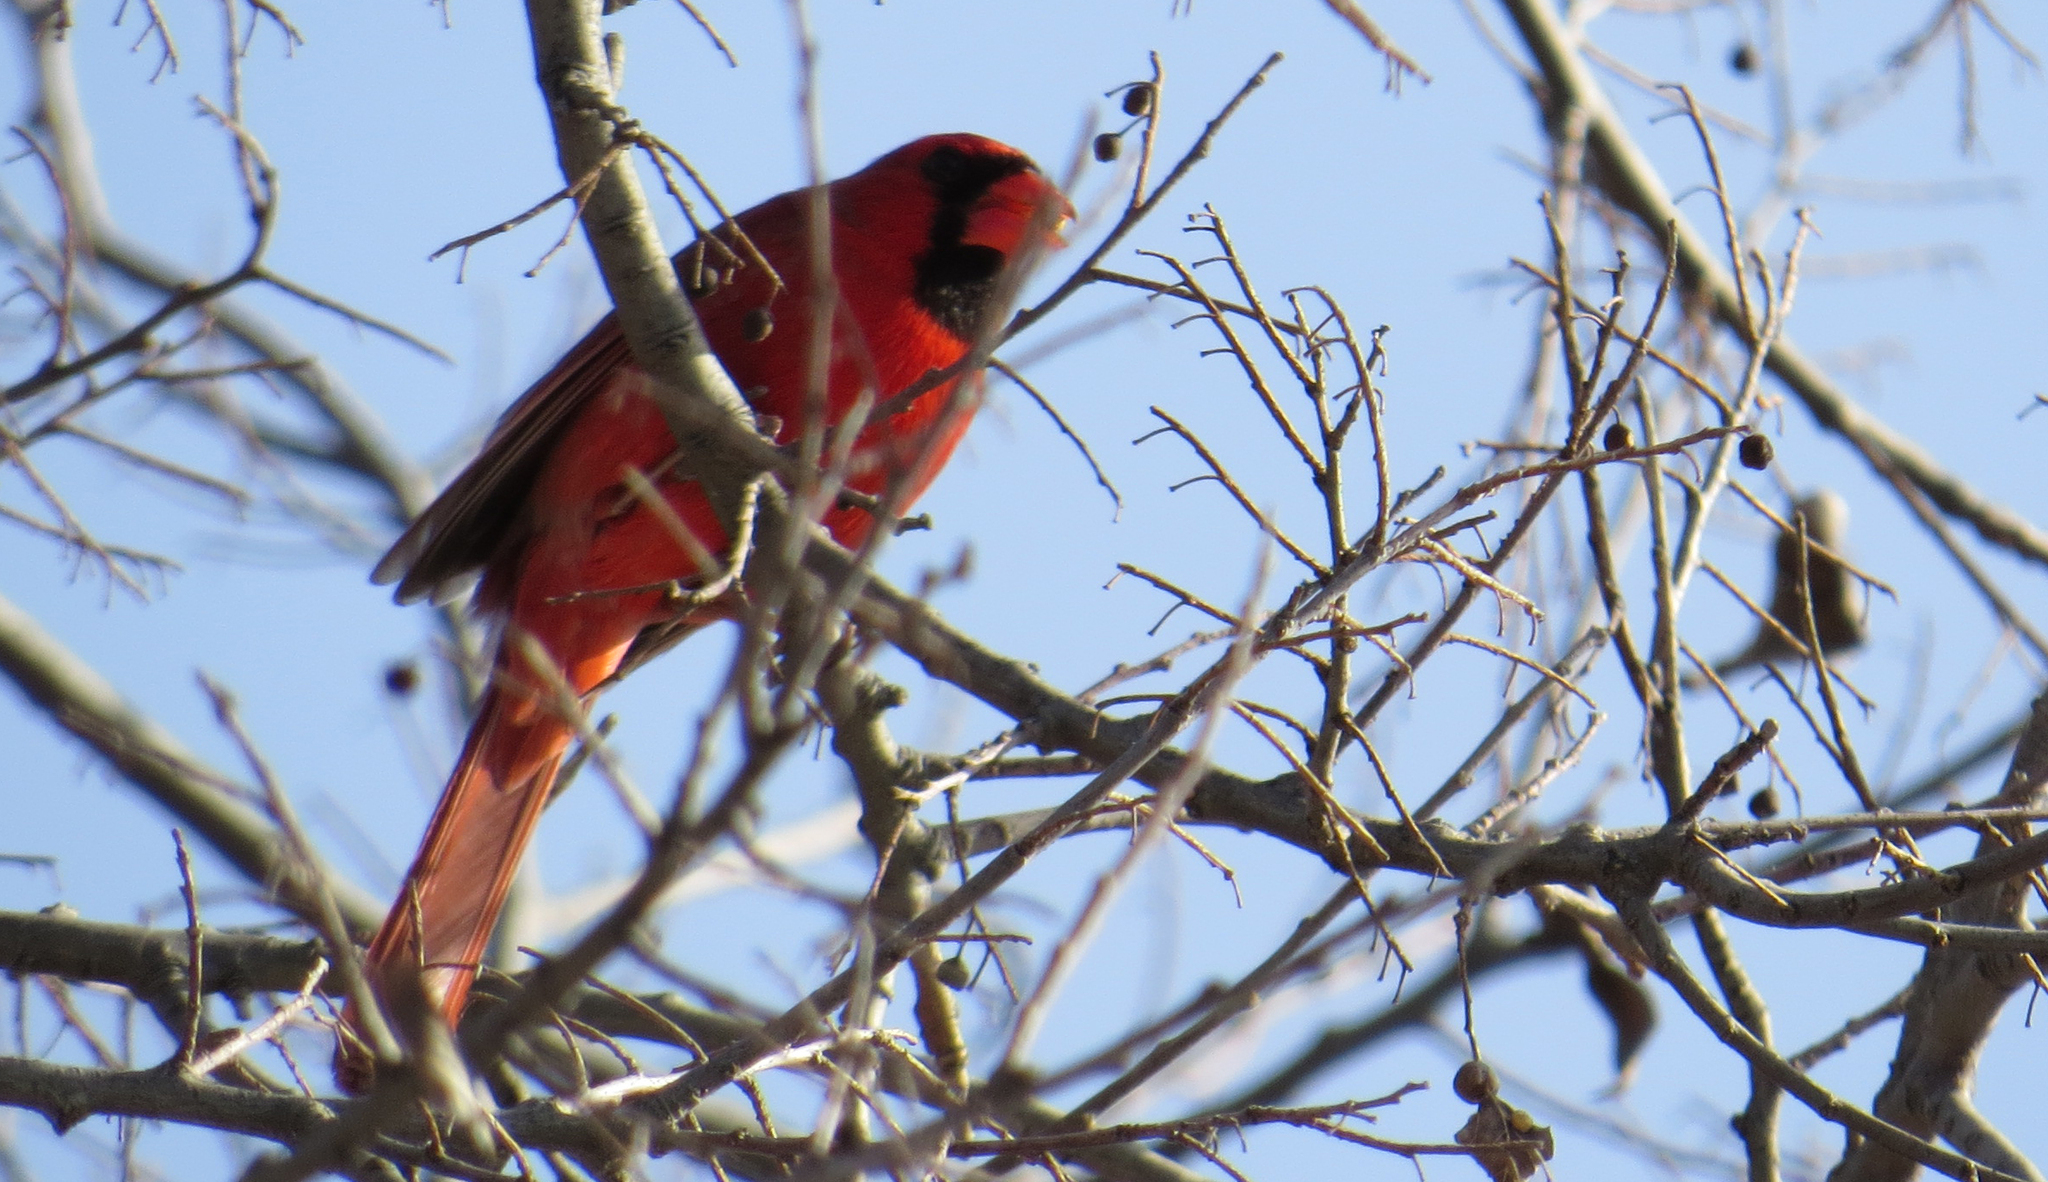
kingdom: Animalia
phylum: Chordata
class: Aves
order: Passeriformes
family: Cardinalidae
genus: Cardinalis
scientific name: Cardinalis cardinalis
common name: Northern cardinal
